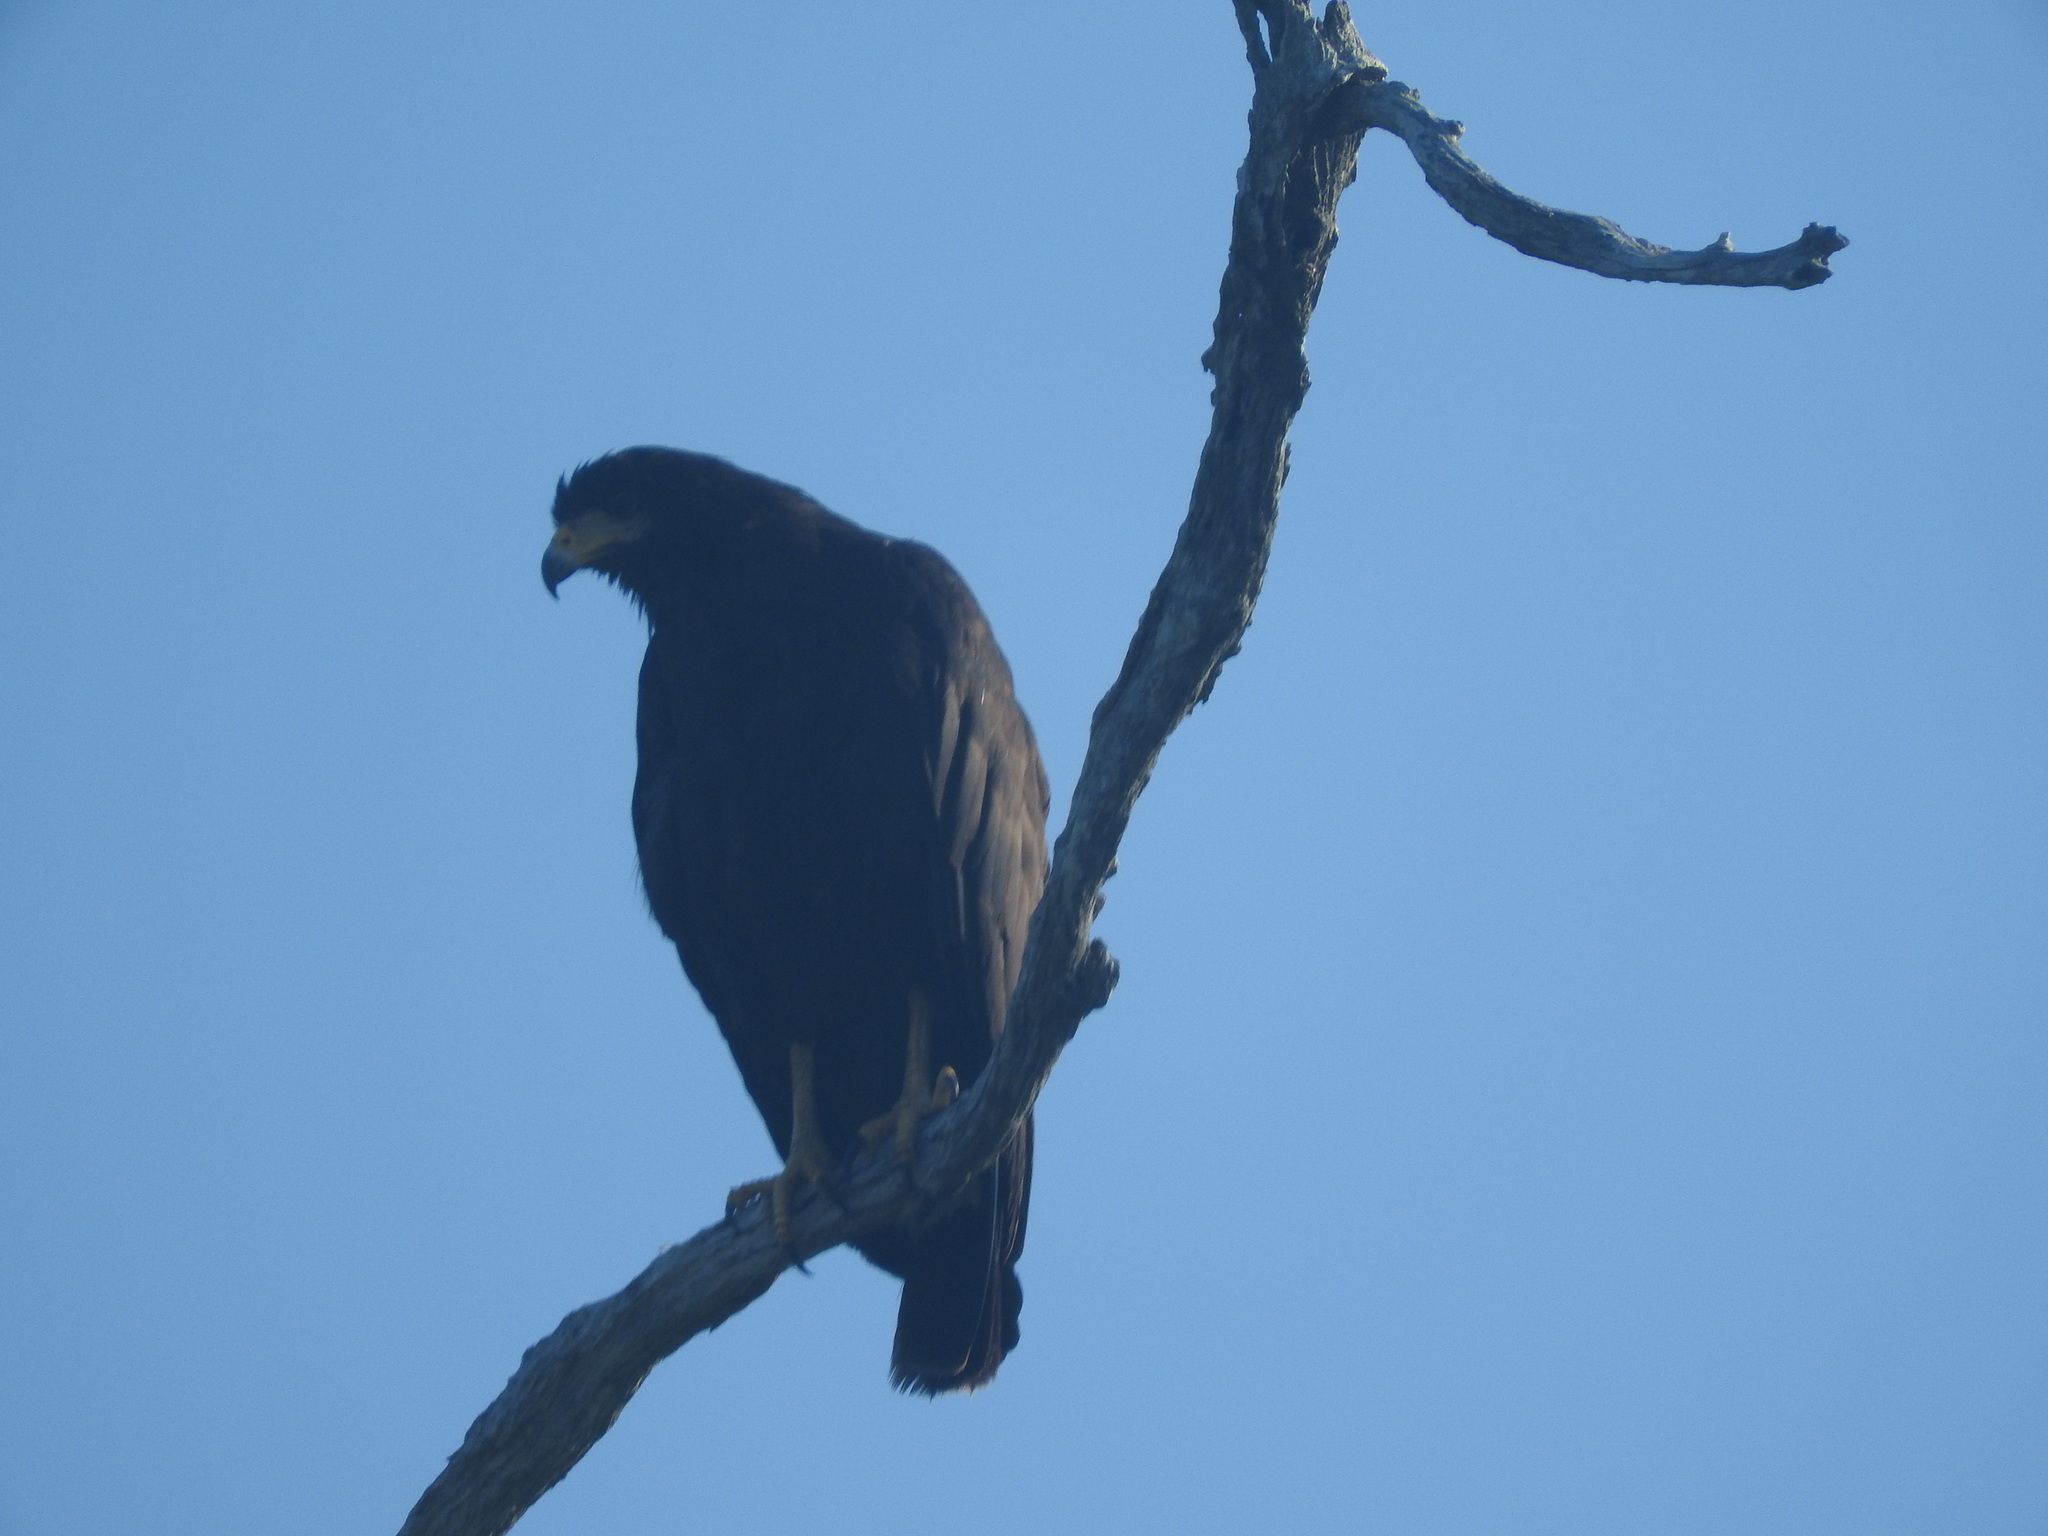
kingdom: Animalia
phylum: Chordata
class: Aves
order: Accipitriformes
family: Accipitridae
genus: Buteogallus
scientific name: Buteogallus anthracinus
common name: Common black hawk
